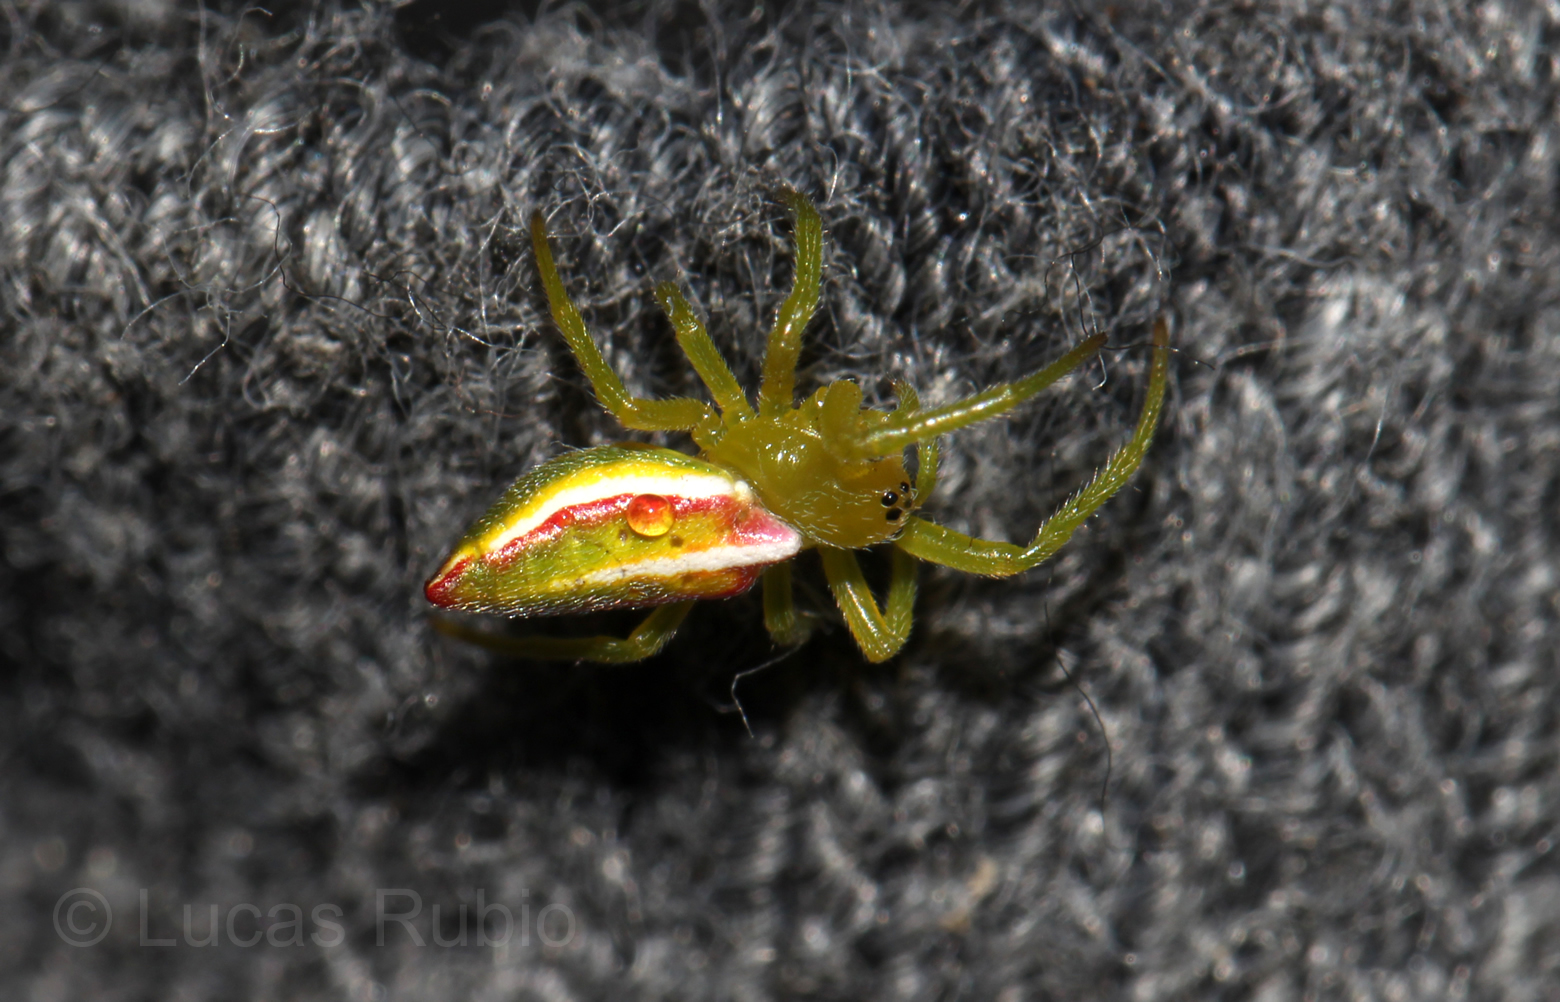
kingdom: Animalia
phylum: Arthropoda
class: Arachnida
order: Araneae
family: Araneidae
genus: Alpaida
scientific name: Alpaida rostratula
